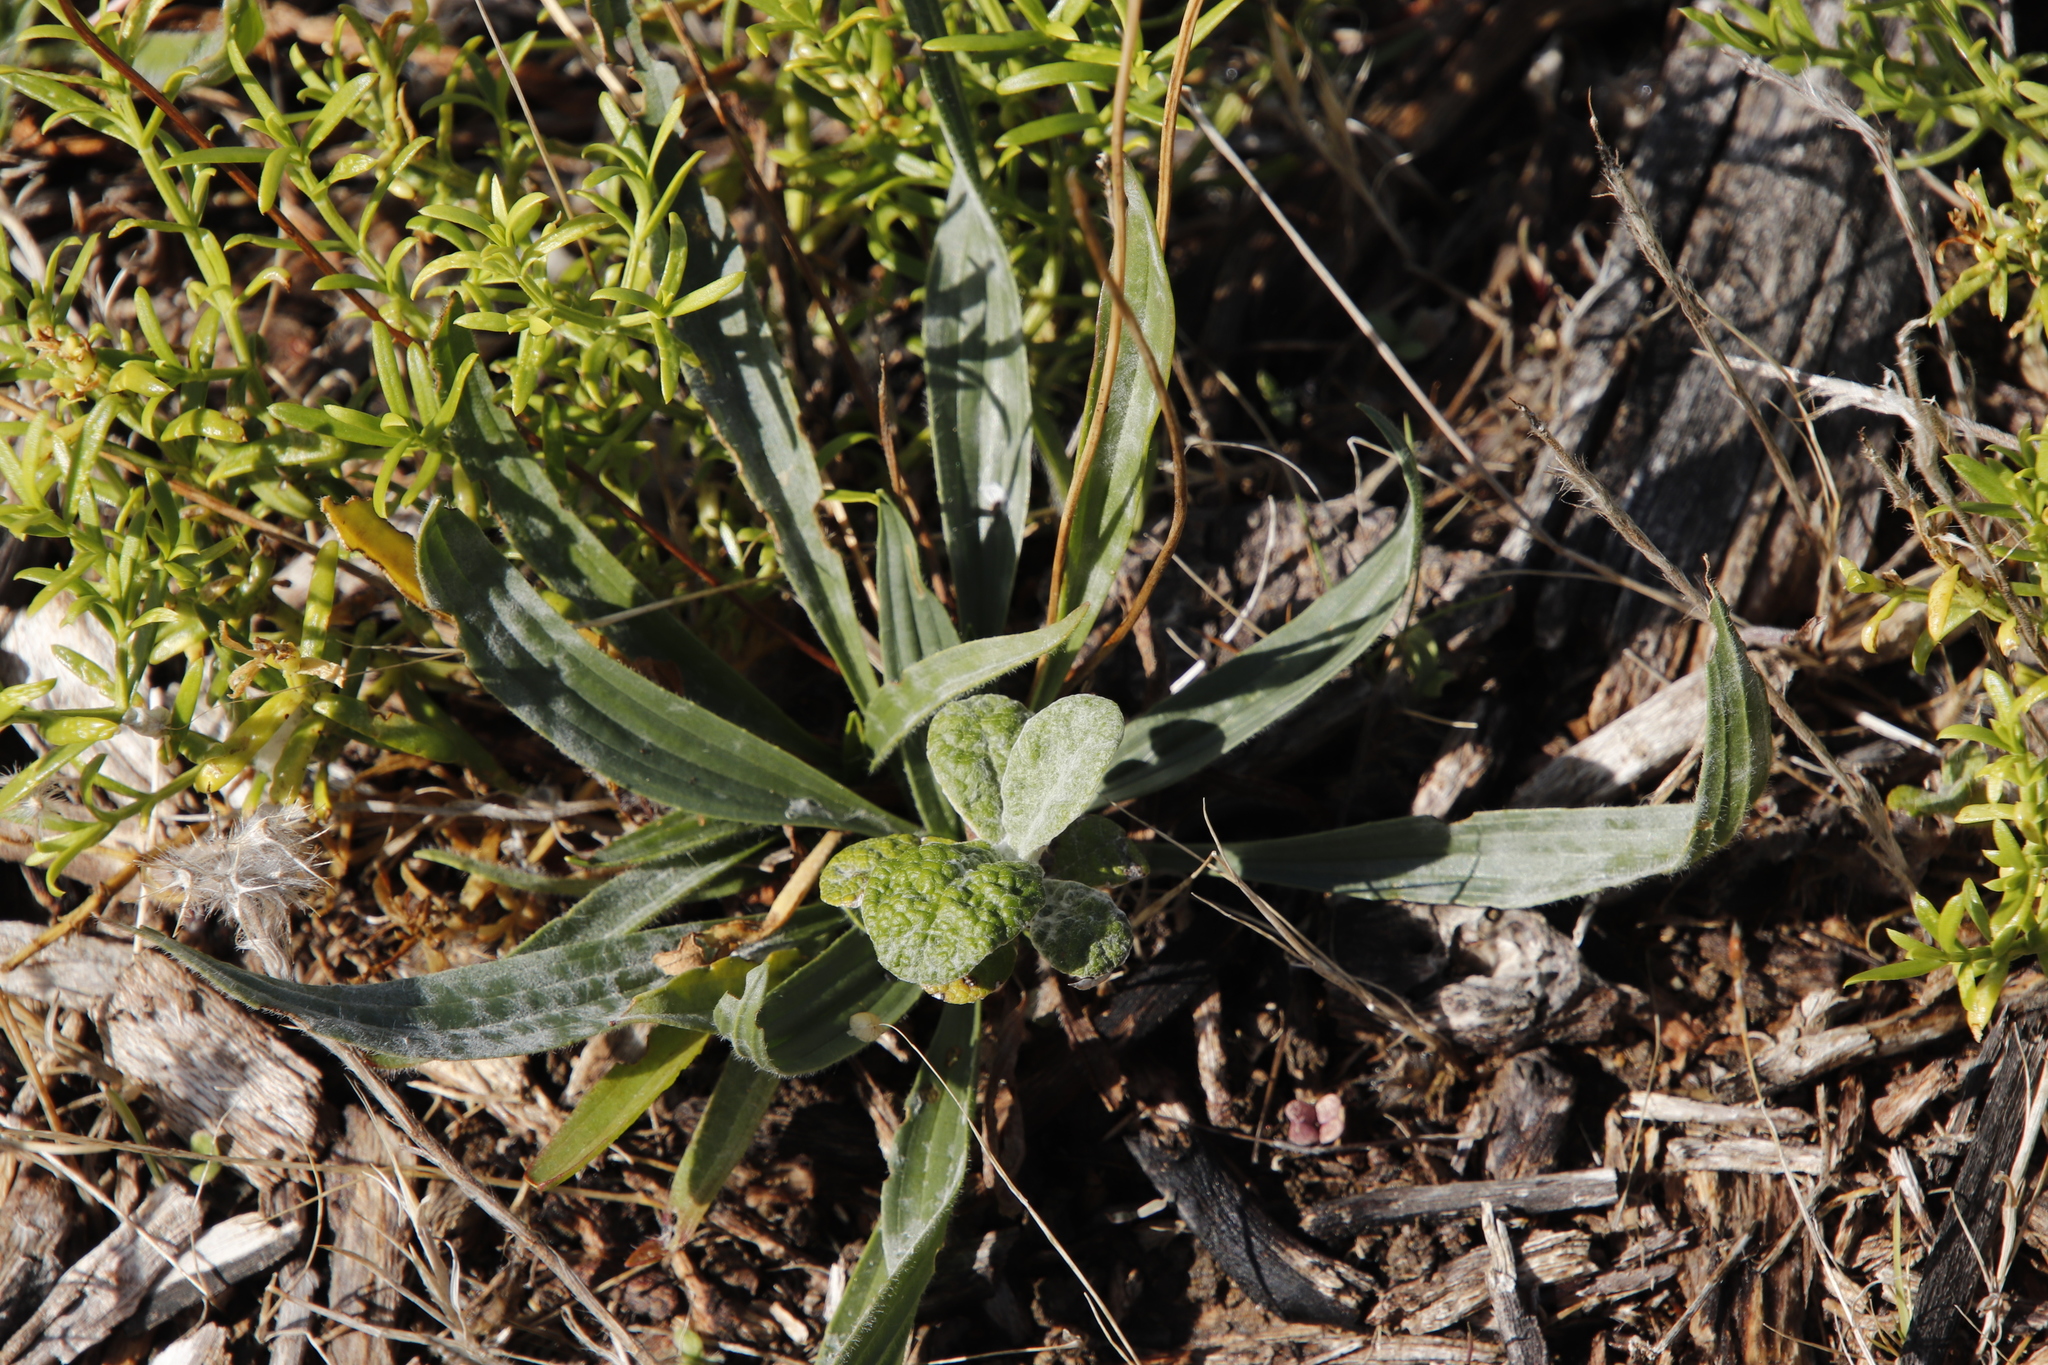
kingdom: Plantae
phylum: Tracheophyta
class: Magnoliopsida
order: Lamiales
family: Plantaginaceae
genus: Plantago
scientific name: Plantago lanceolata
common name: Ribwort plantain
